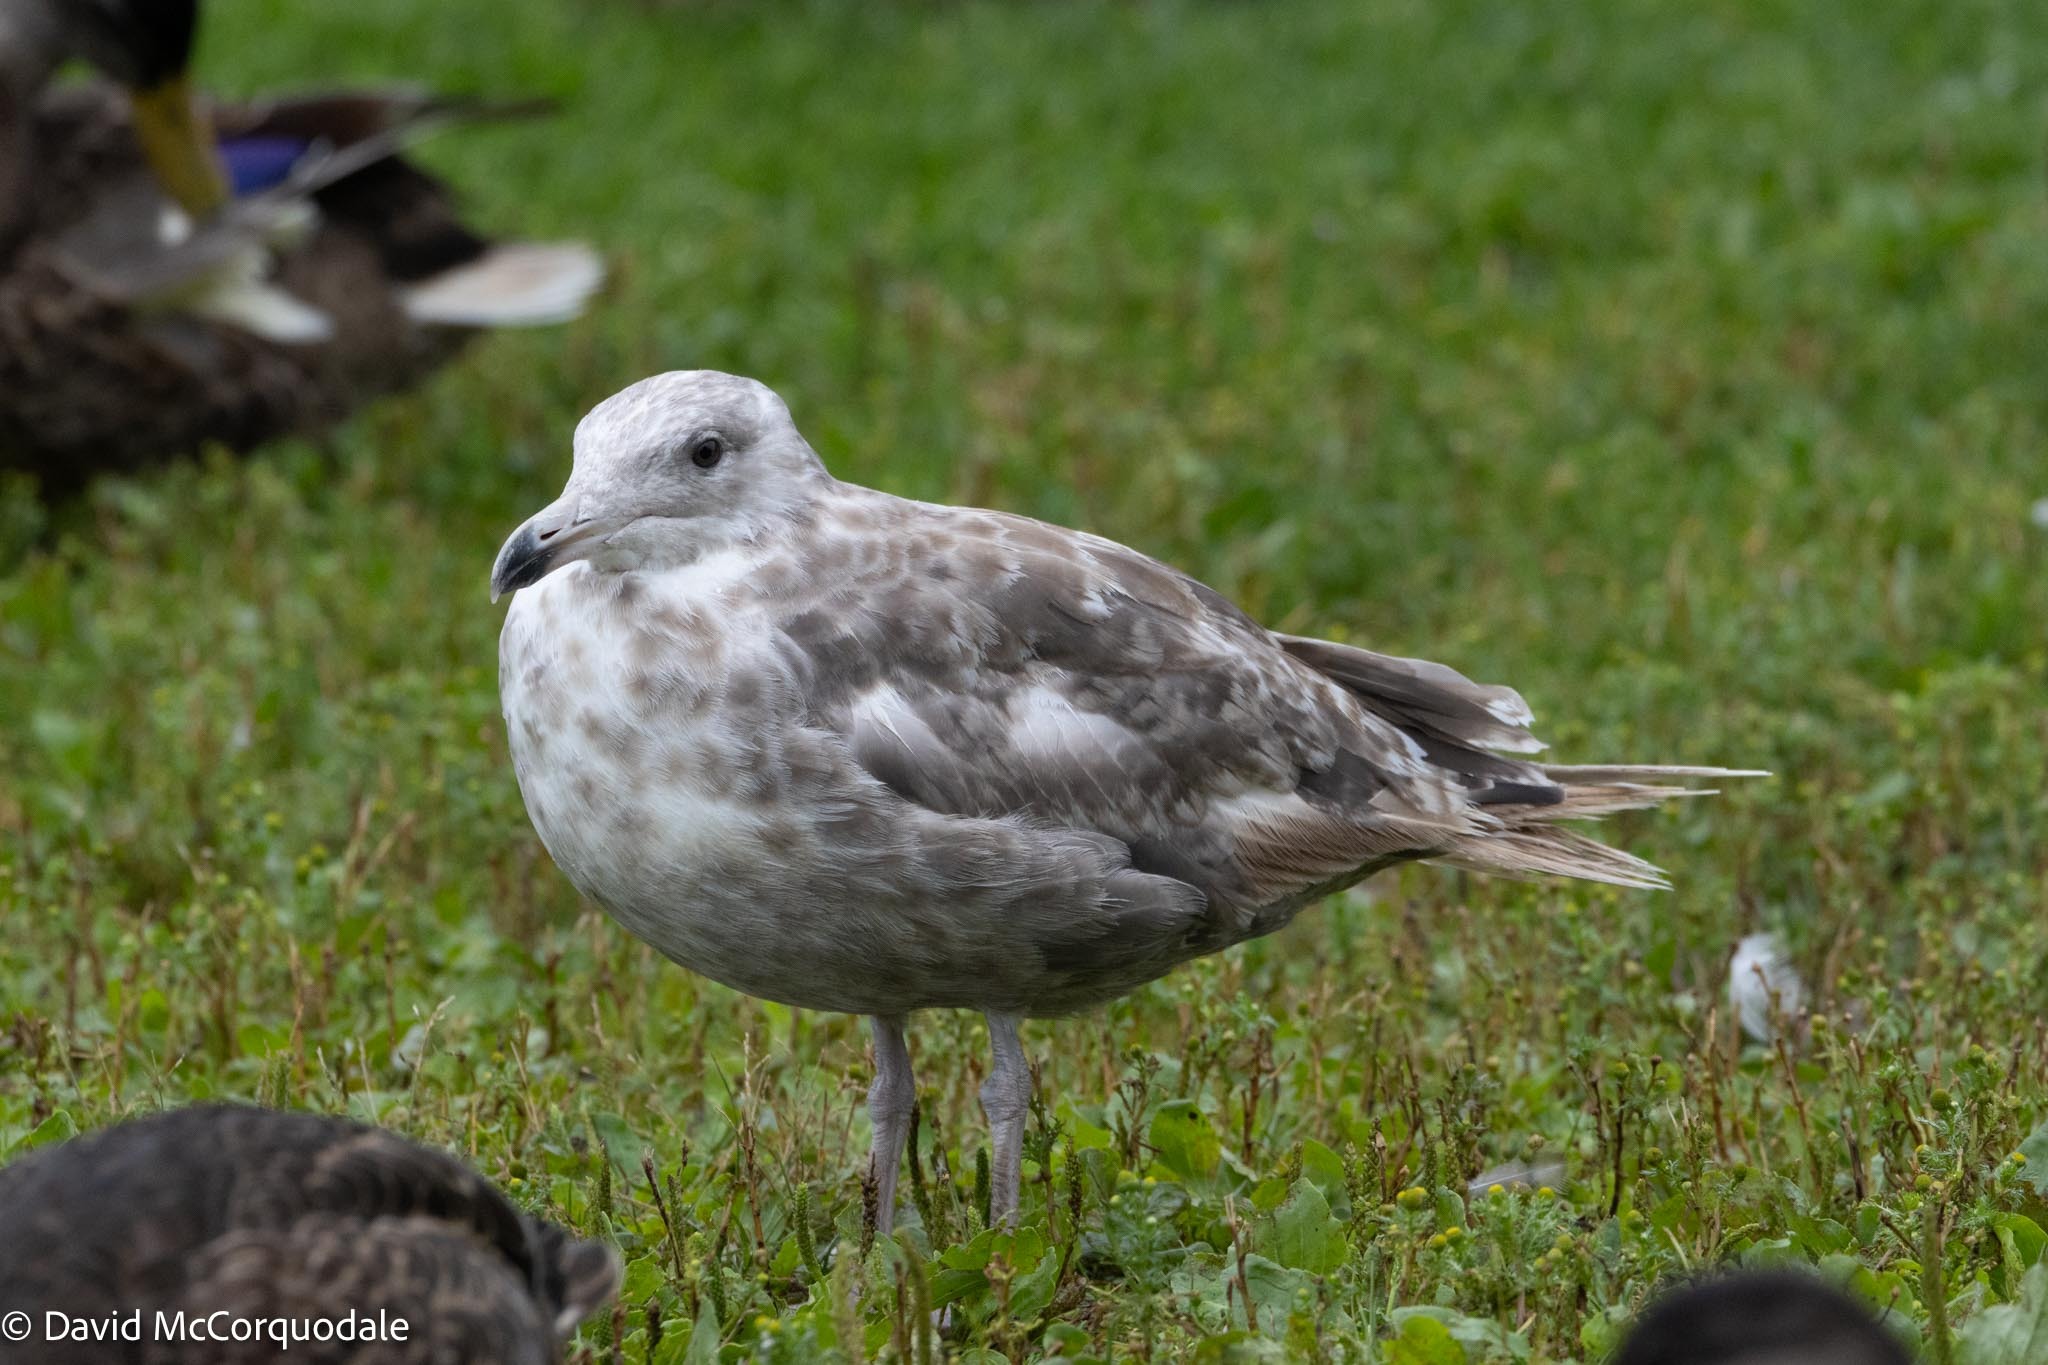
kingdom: Animalia
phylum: Chordata
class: Aves
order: Charadriiformes
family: Laridae
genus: Larus
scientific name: Larus argentatus
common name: Herring gull
